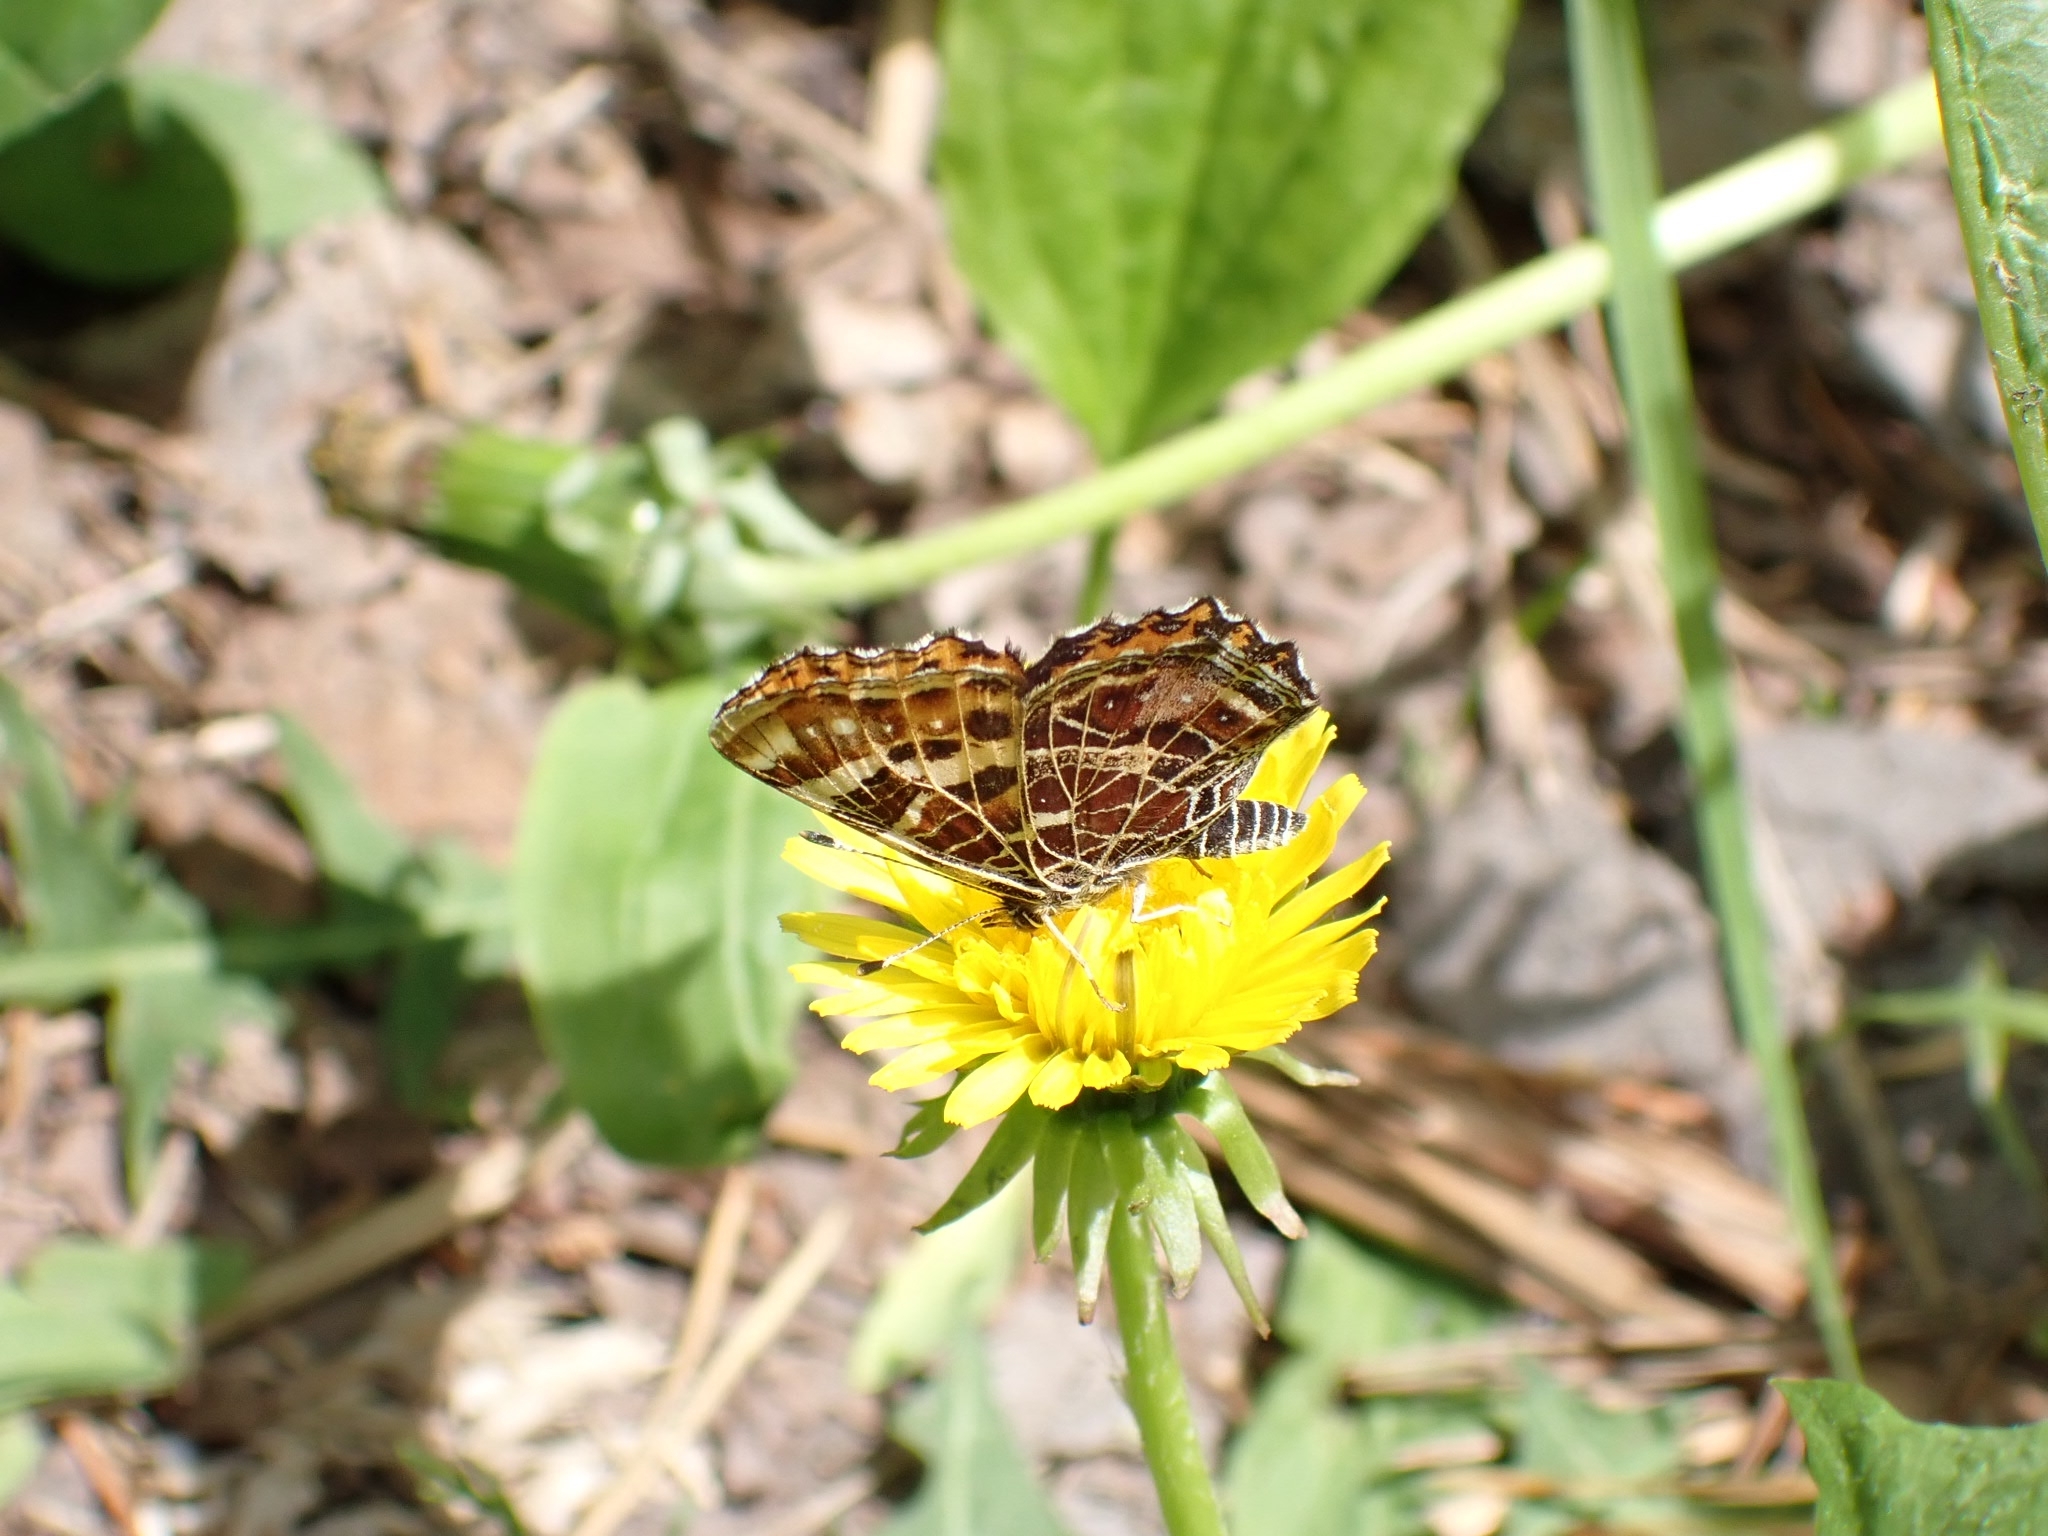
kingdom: Animalia
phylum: Arthropoda
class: Insecta
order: Lepidoptera
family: Nymphalidae
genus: Araschnia
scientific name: Araschnia levana
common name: Map butterfly
